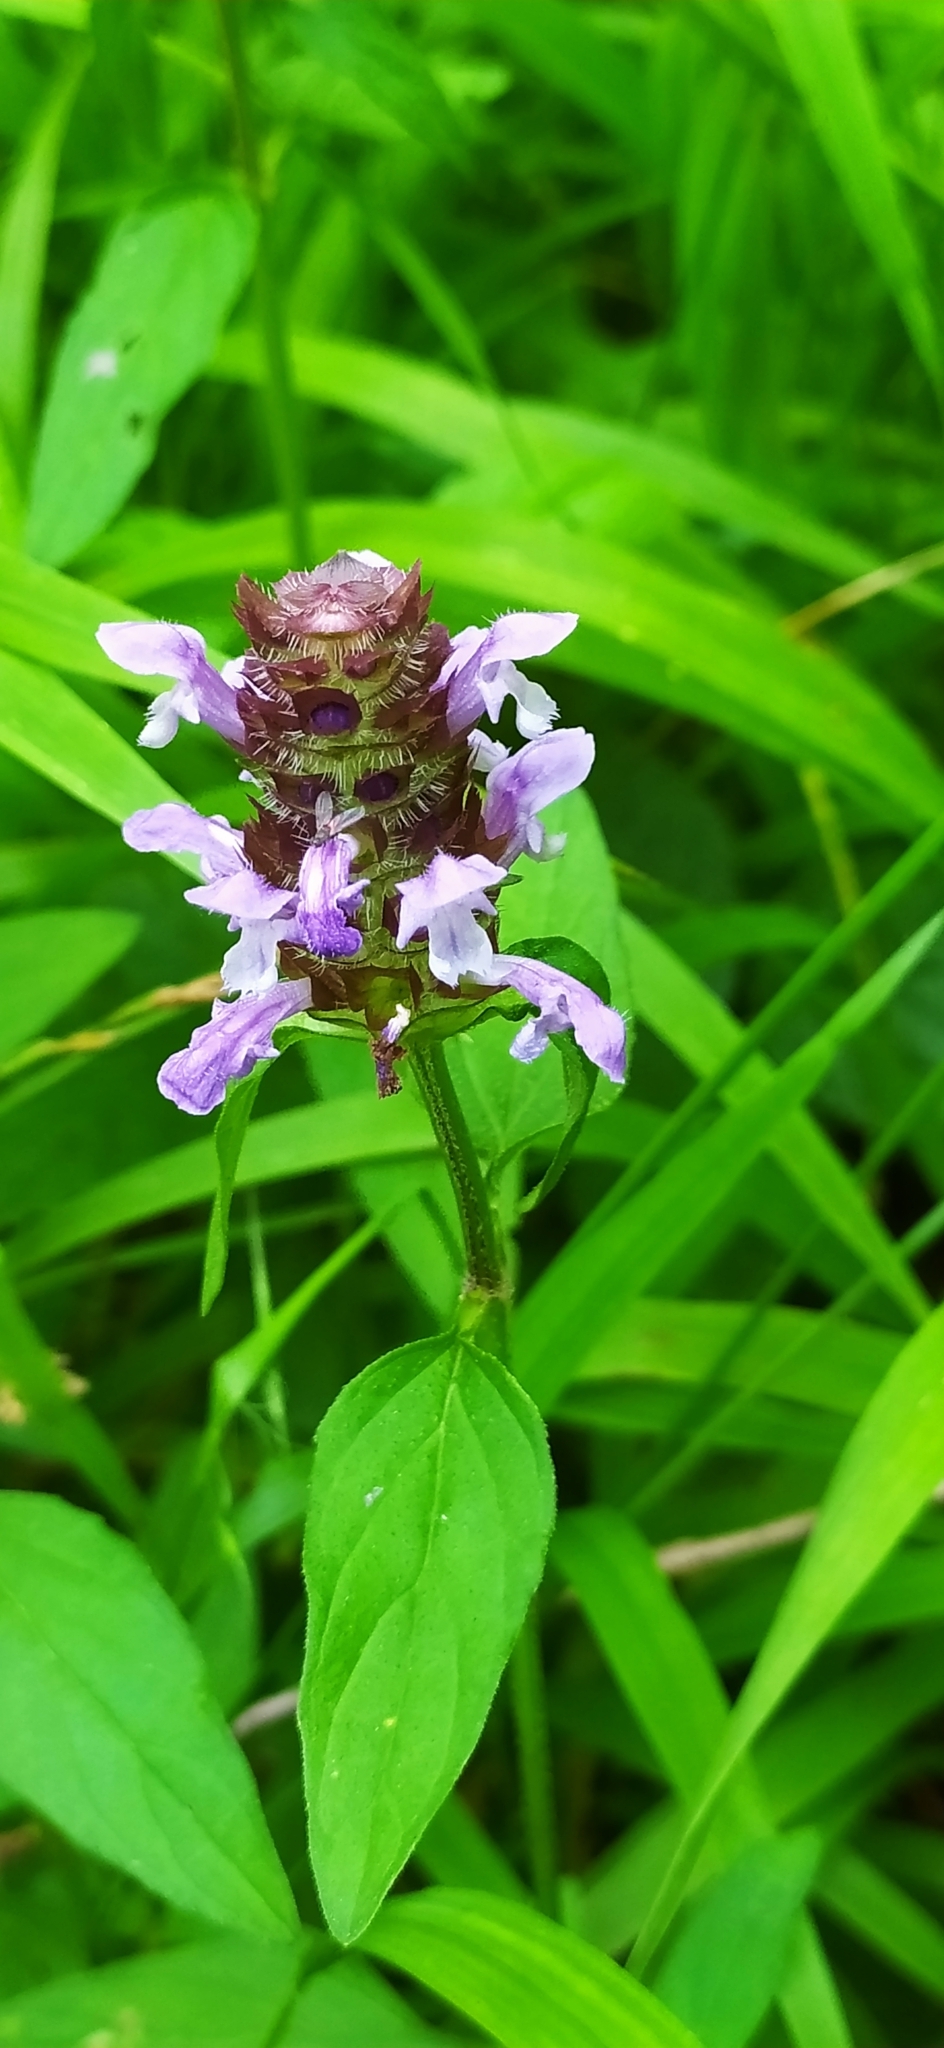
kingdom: Plantae
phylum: Tracheophyta
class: Magnoliopsida
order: Lamiales
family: Lamiaceae
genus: Prunella
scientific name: Prunella vulgaris
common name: Heal-all
